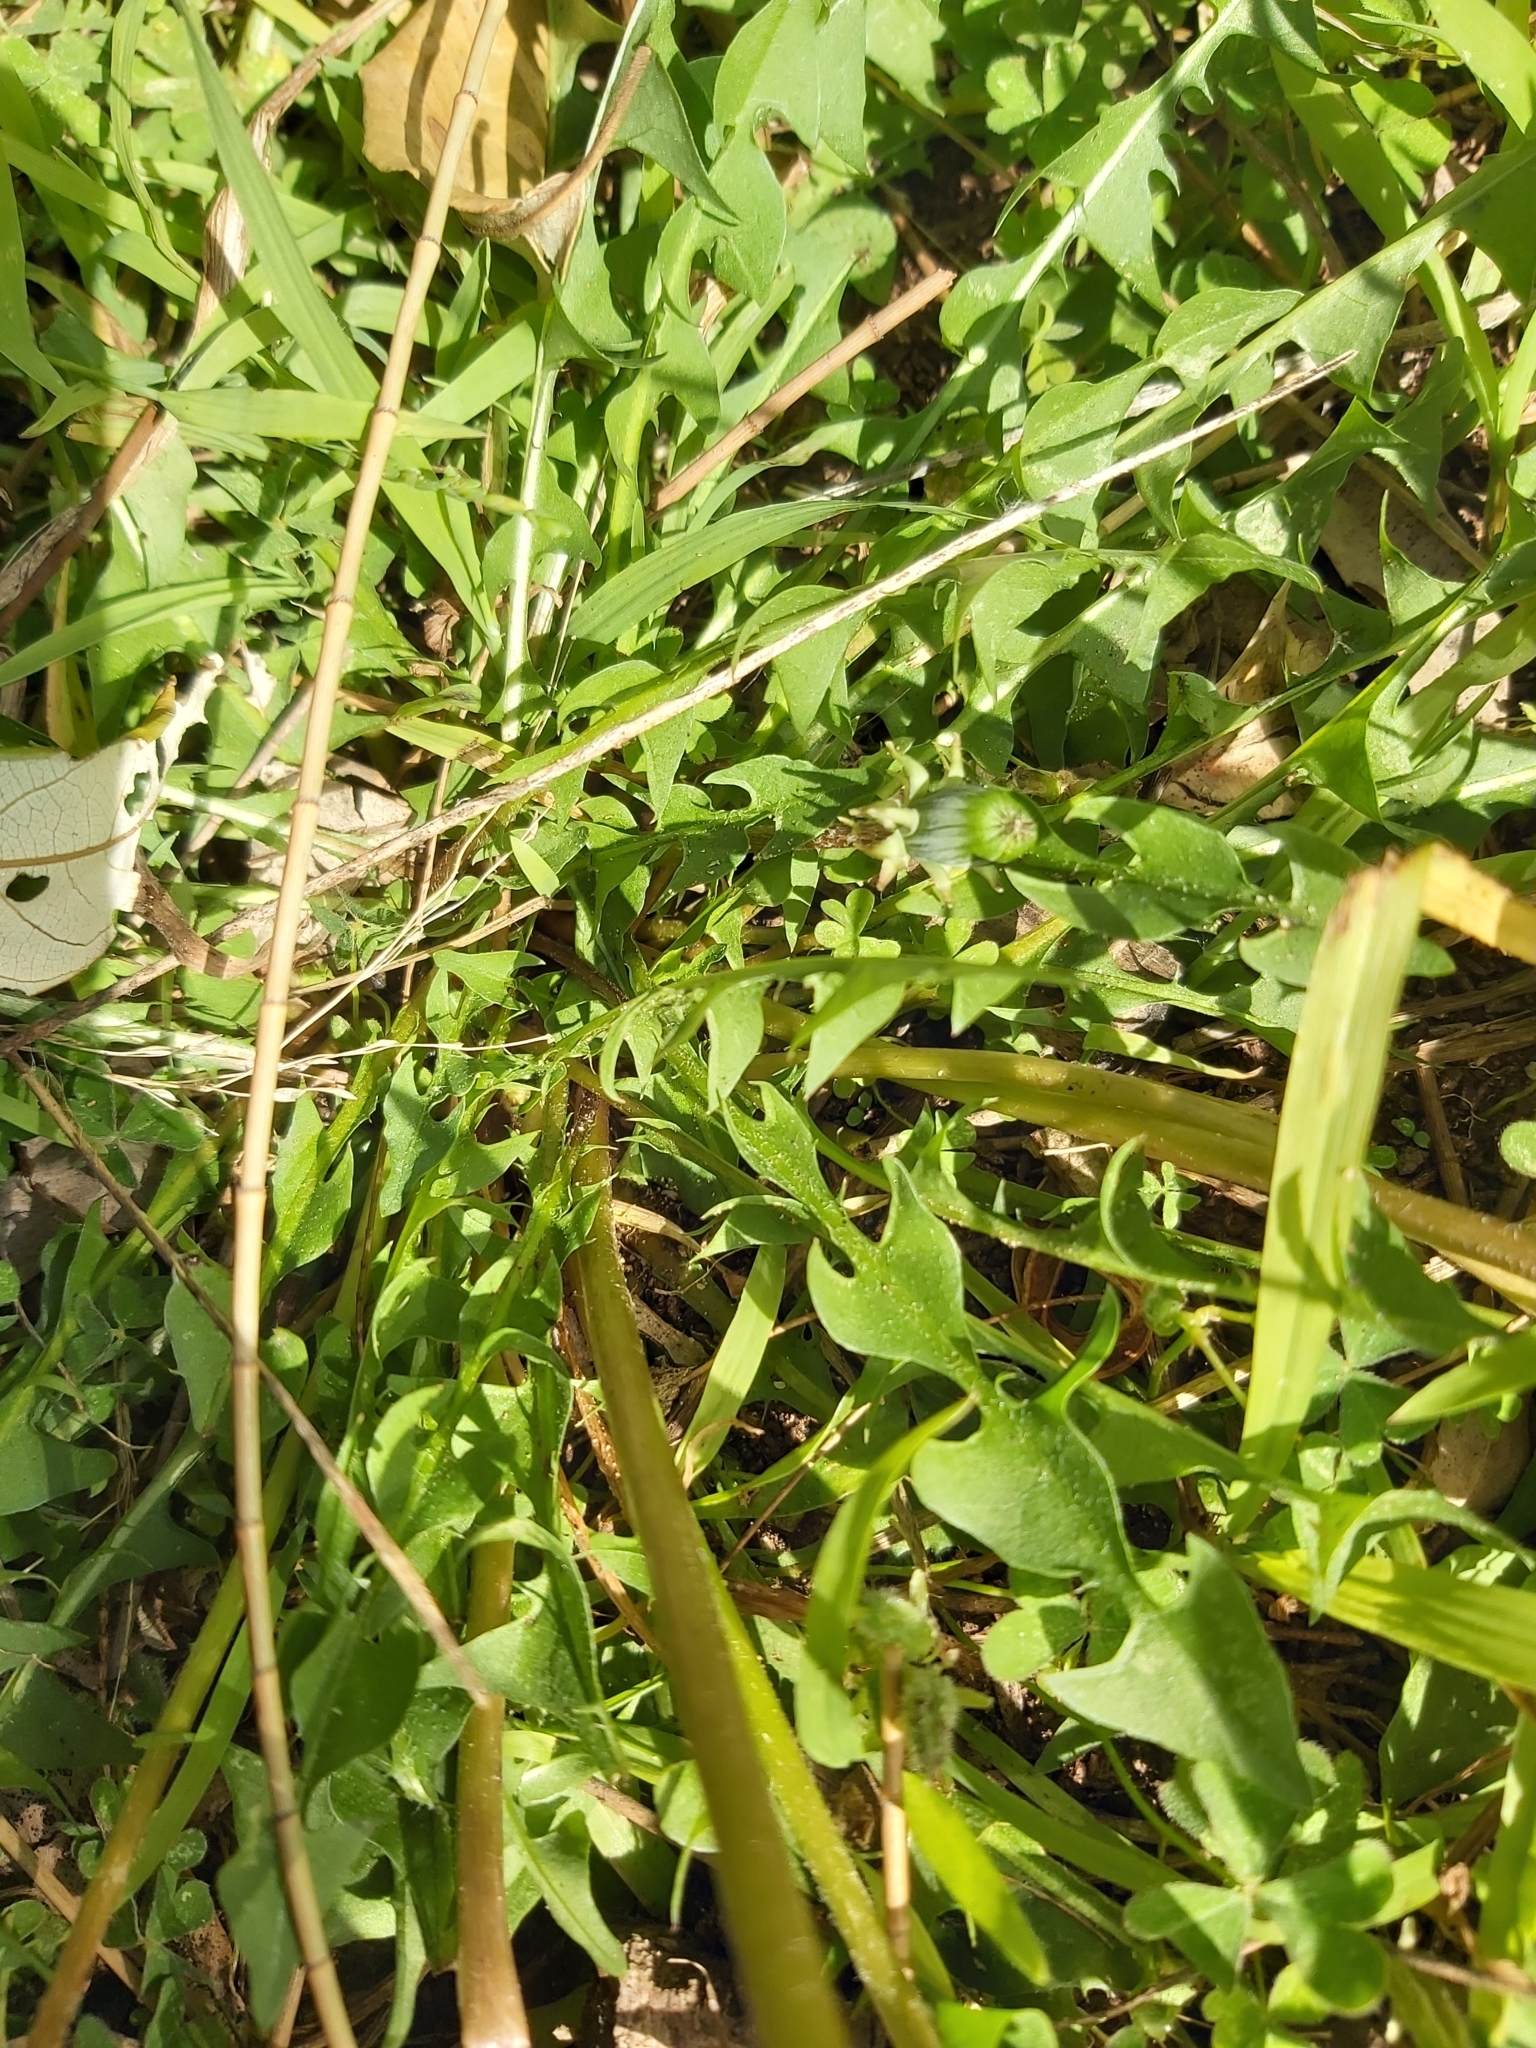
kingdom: Plantae
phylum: Tracheophyta
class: Magnoliopsida
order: Asterales
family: Asteraceae
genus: Taraxacum
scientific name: Taraxacum officinale
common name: Common dandelion
